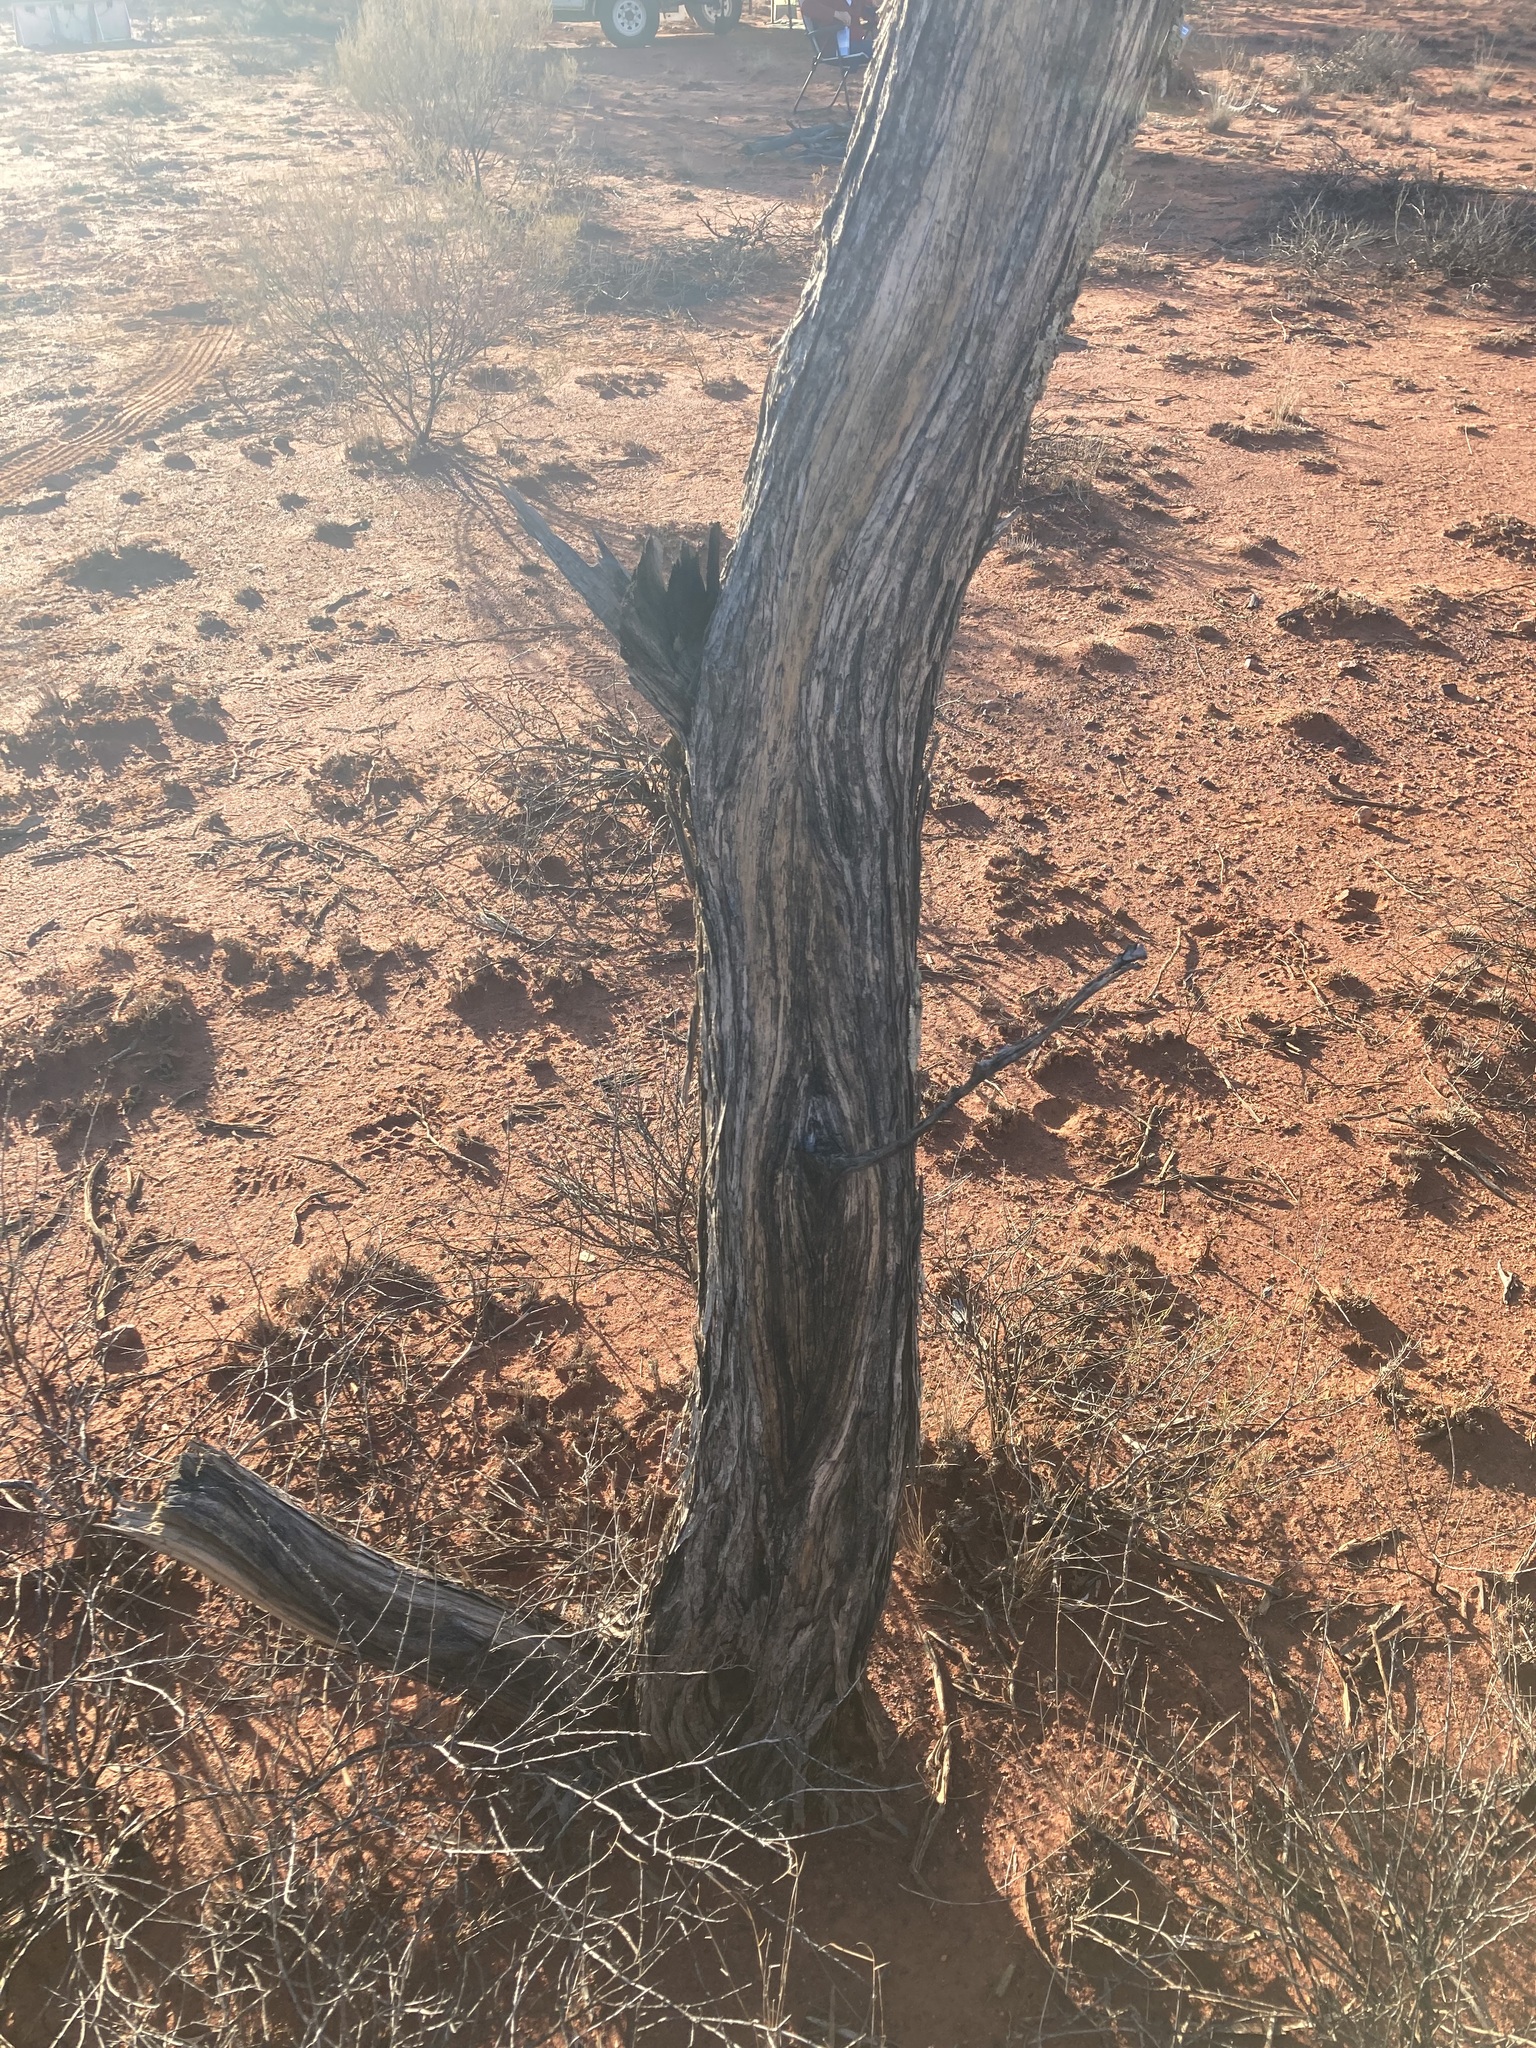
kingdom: Plantae
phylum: Tracheophyta
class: Magnoliopsida
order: Fabales
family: Fabaceae
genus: Acacia
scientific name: Acacia aneura
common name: Mulga
